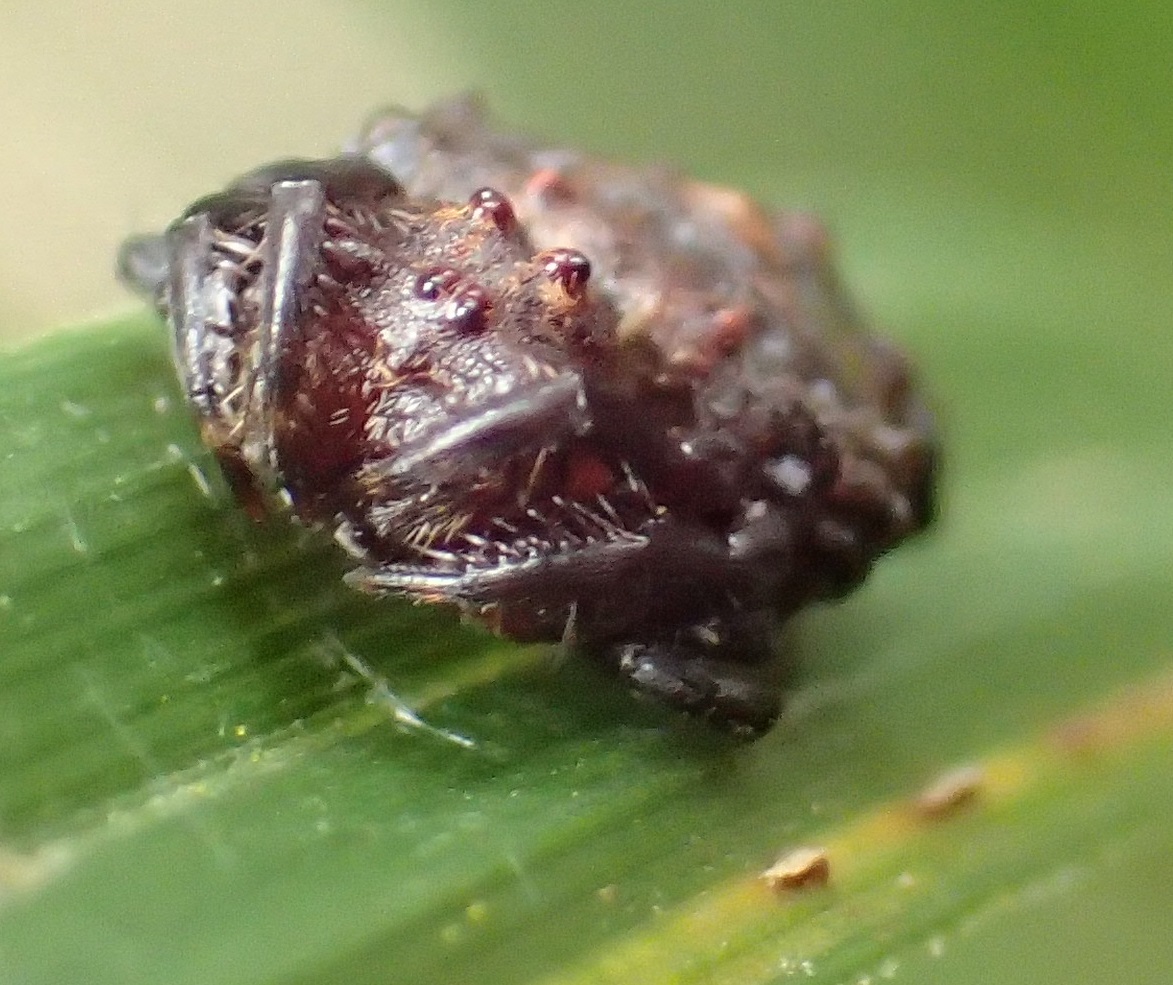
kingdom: Animalia
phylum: Arthropoda
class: Arachnida
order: Araneae
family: Arkyidae
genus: Arkys
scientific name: Arkys alticephala
